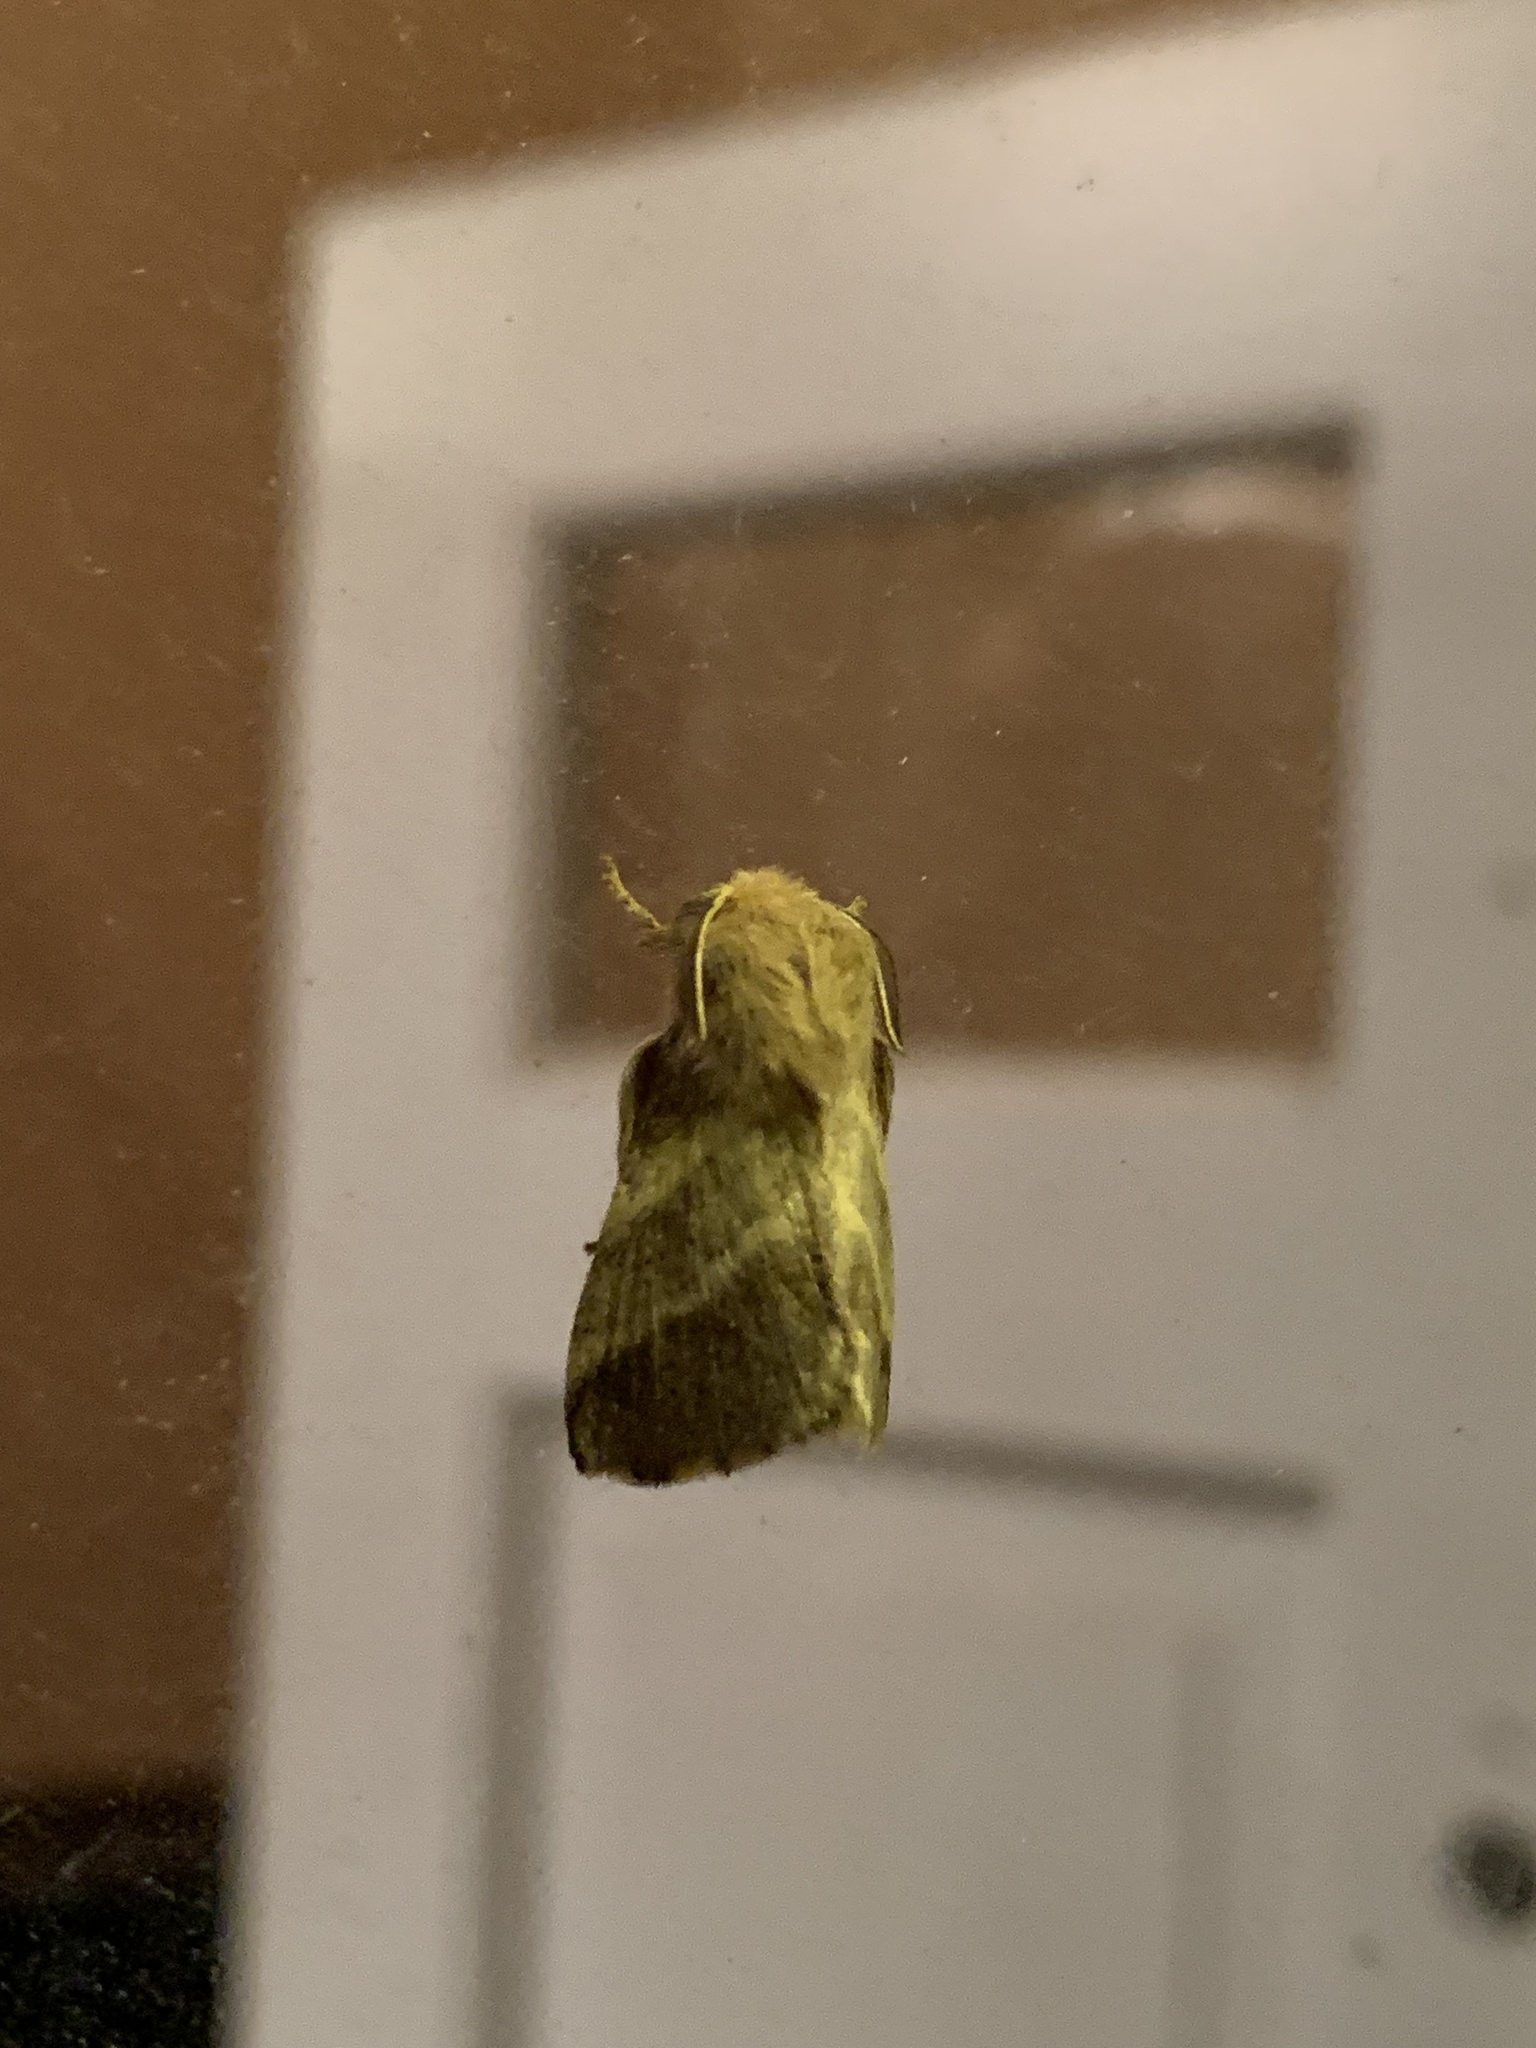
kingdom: Animalia
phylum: Arthropoda
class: Insecta
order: Lepidoptera
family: Lasiocampidae
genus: Malacosoma
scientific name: Malacosoma americana
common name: Eastern tent caterpillar moth
